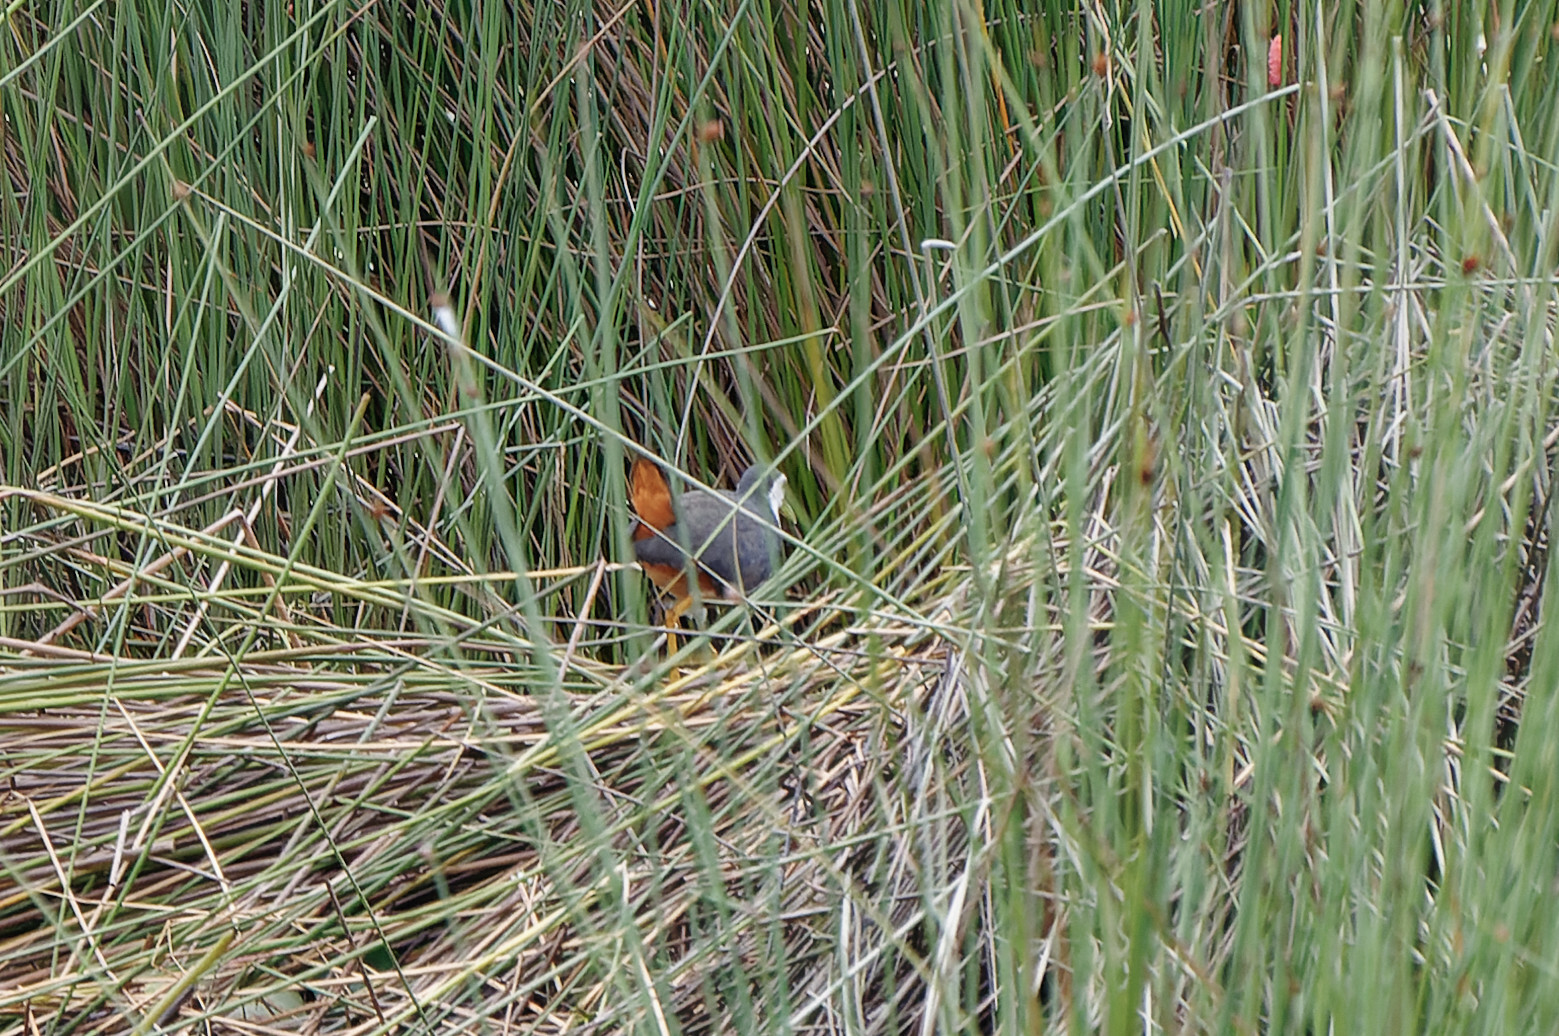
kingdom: Animalia
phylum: Chordata
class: Aves
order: Gruiformes
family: Rallidae
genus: Amaurornis
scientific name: Amaurornis phoenicurus
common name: White-breasted waterhen
